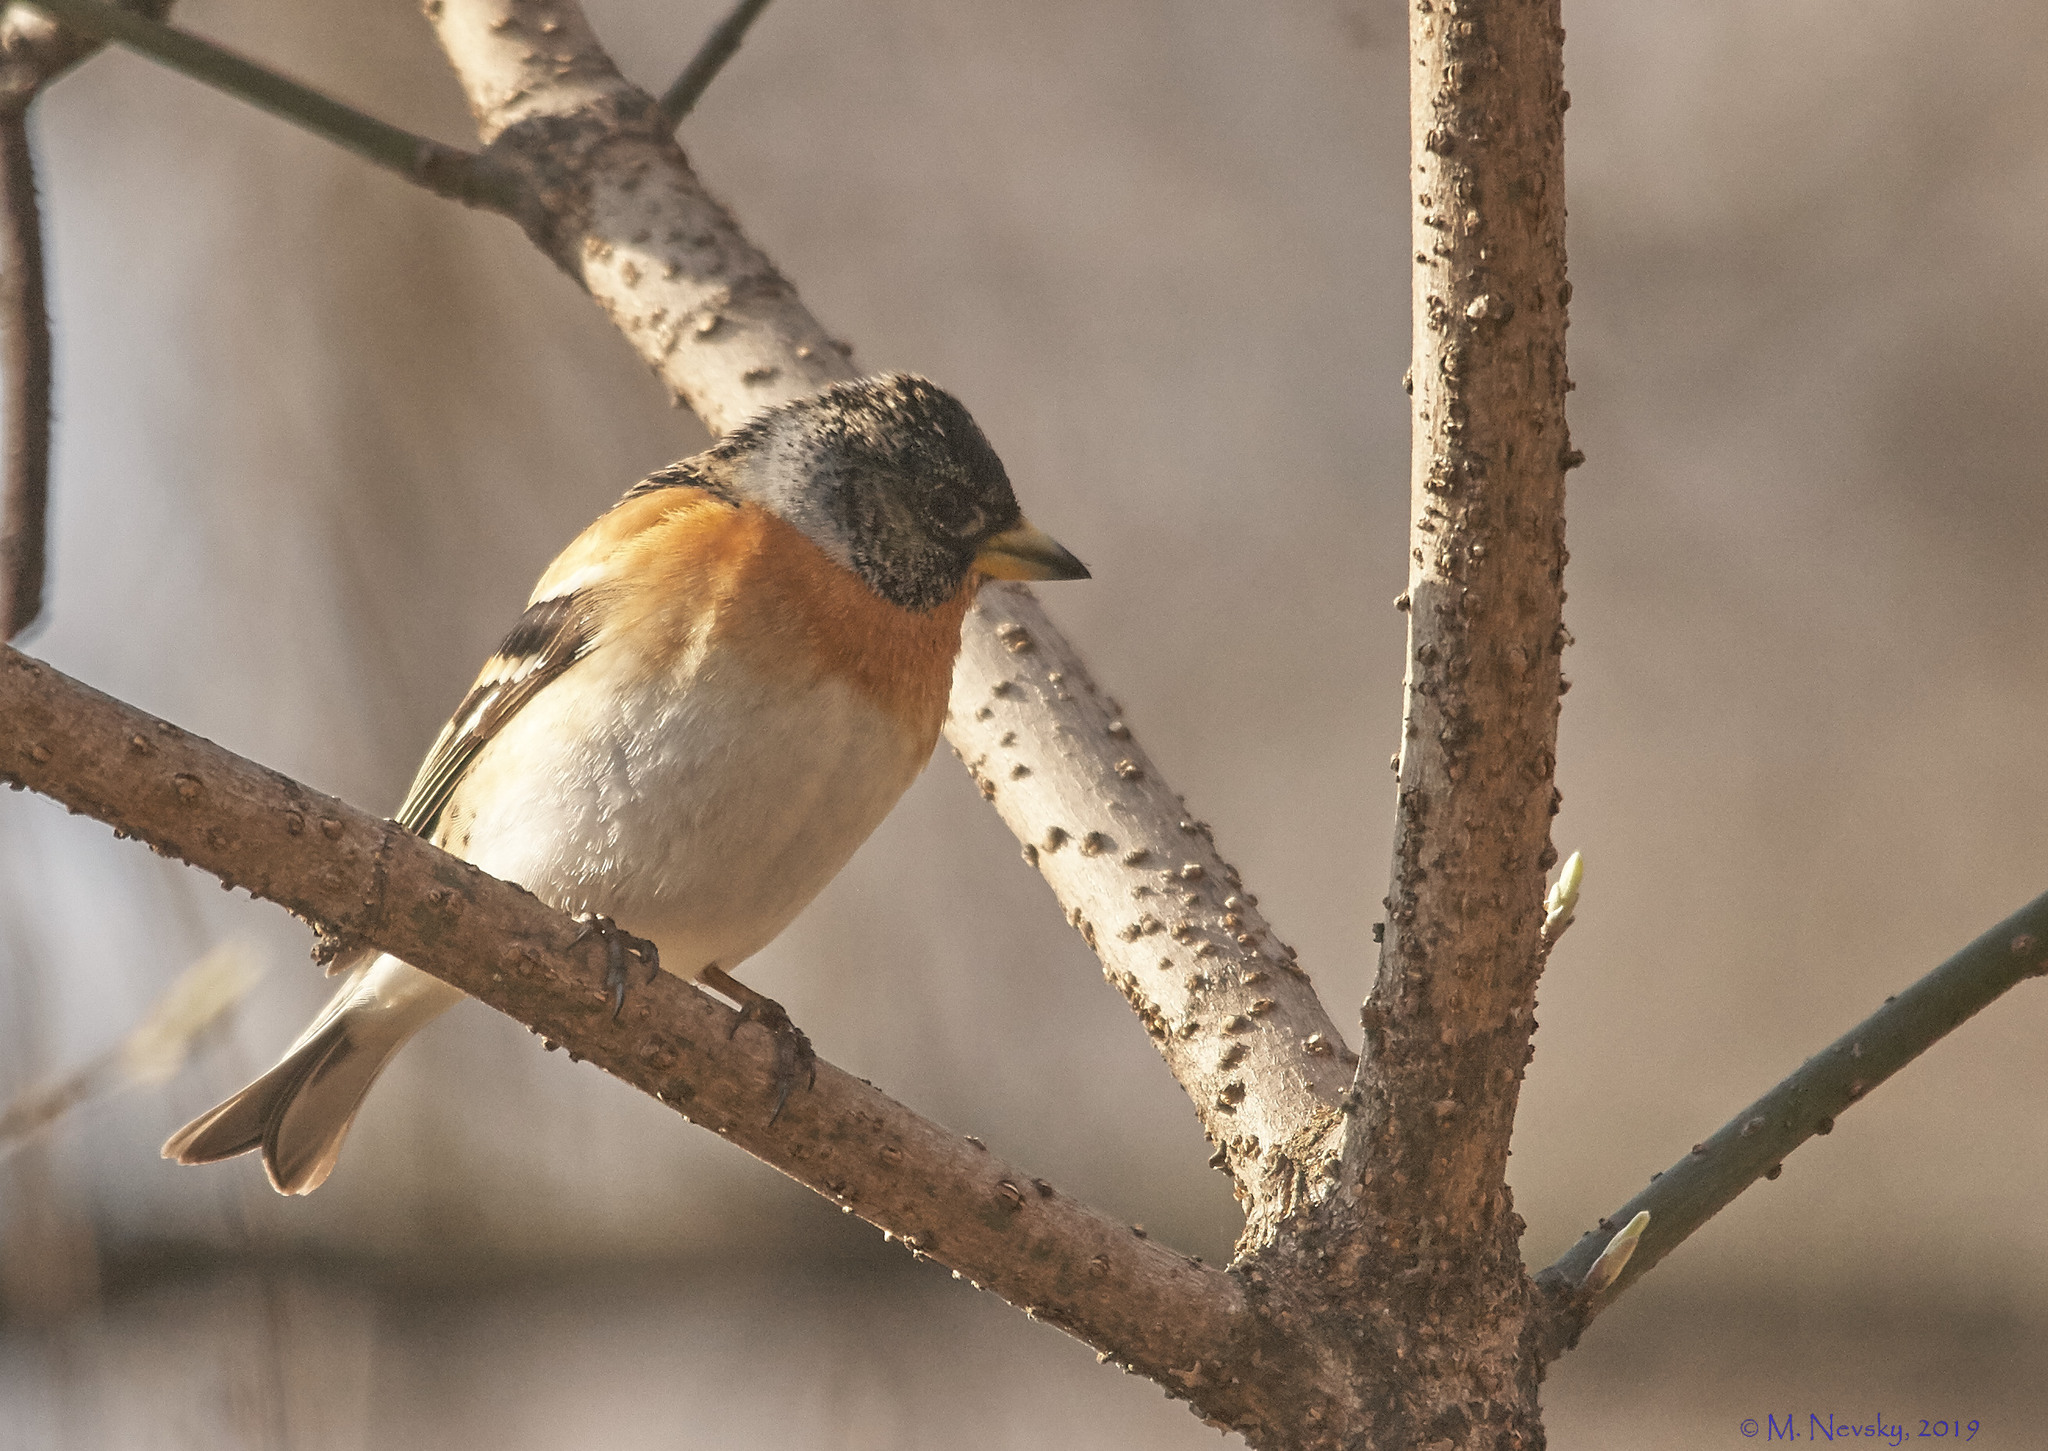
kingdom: Animalia
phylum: Chordata
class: Aves
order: Passeriformes
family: Fringillidae
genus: Fringilla
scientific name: Fringilla montifringilla
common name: Brambling
